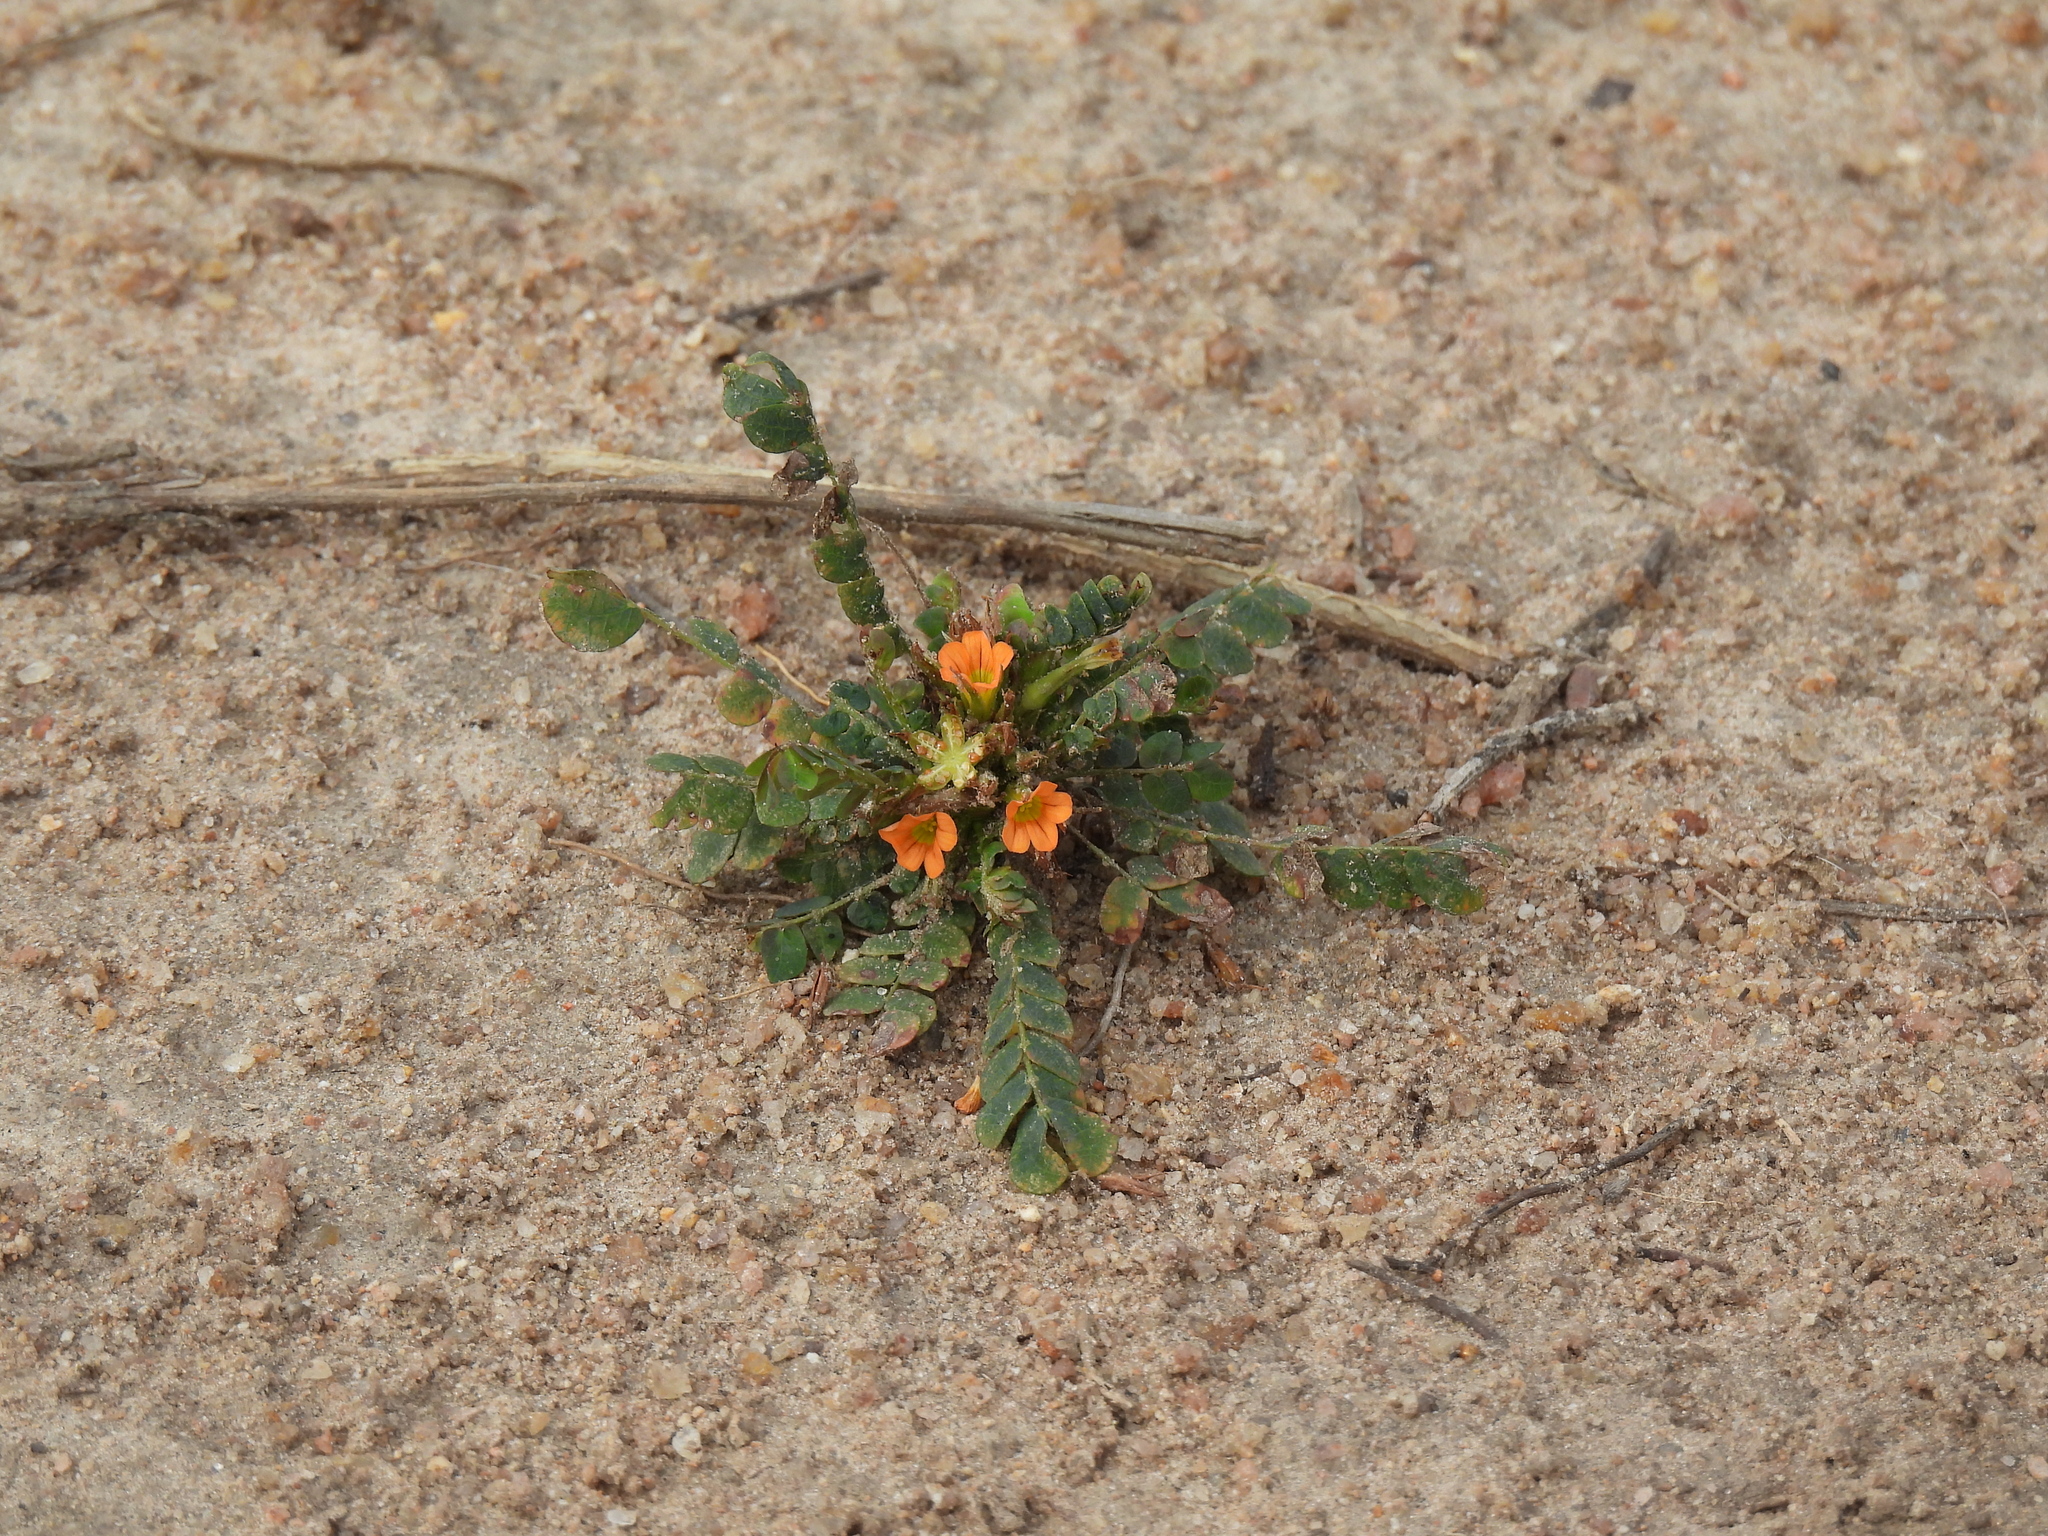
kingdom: Plantae
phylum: Tracheophyta
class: Magnoliopsida
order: Oxalidales
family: Oxalidaceae
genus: Biophytum
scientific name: Biophytum umbraculum
